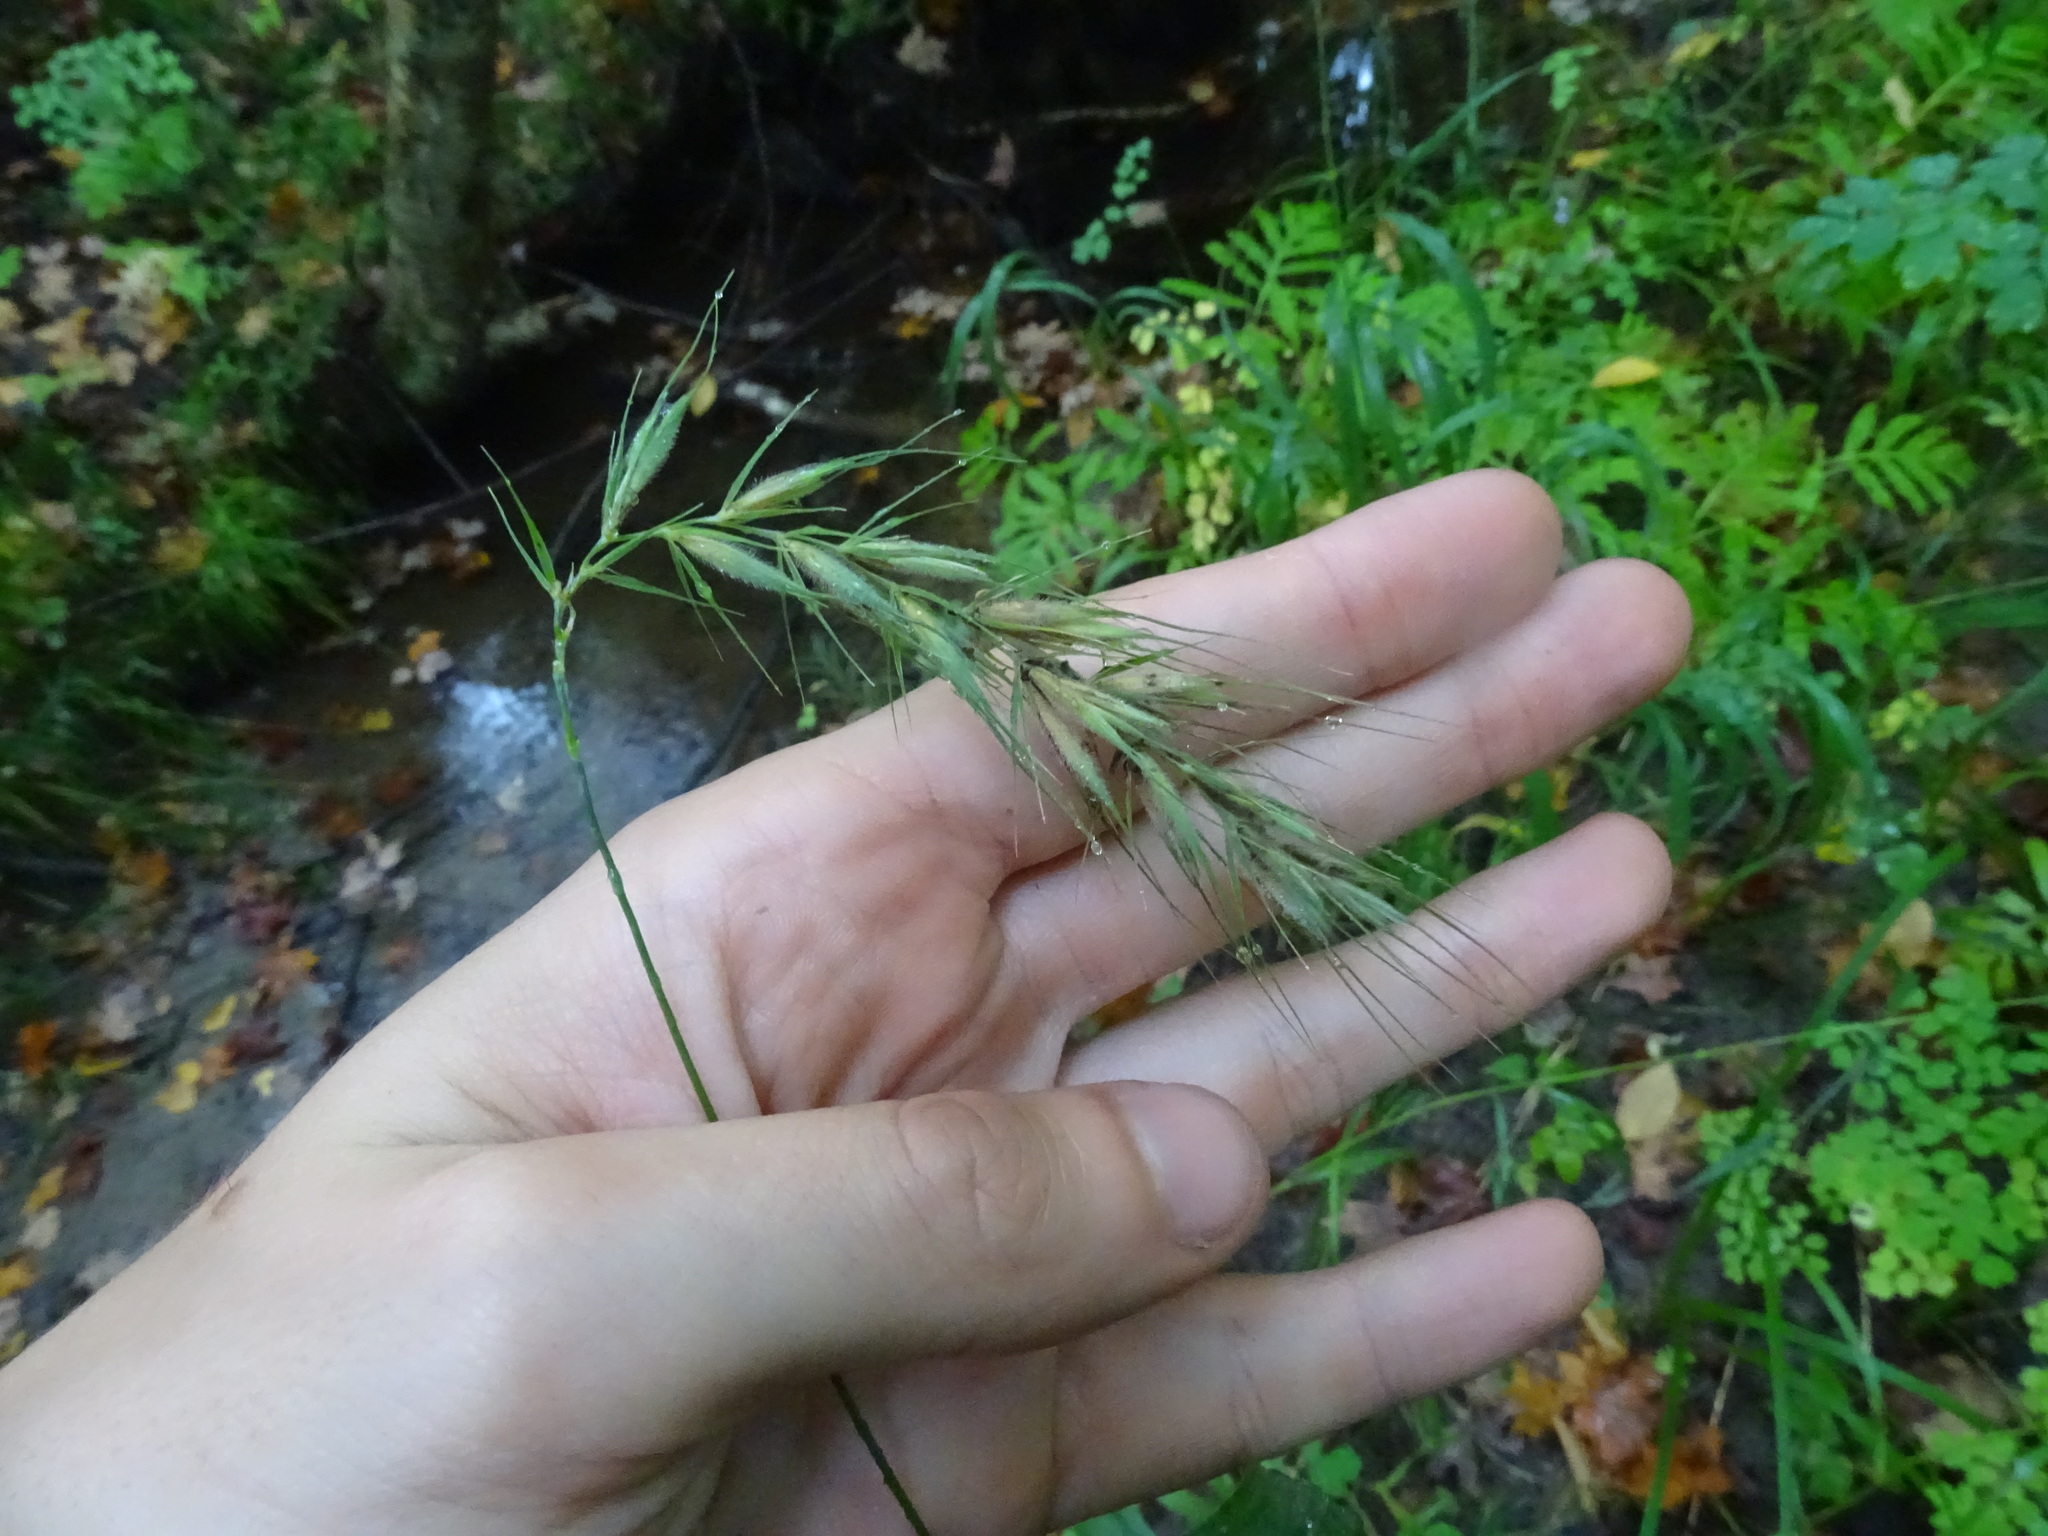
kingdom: Plantae
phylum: Tracheophyta
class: Liliopsida
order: Poales
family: Poaceae
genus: Elymus
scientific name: Elymus canadensis
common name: Canada wild rye
